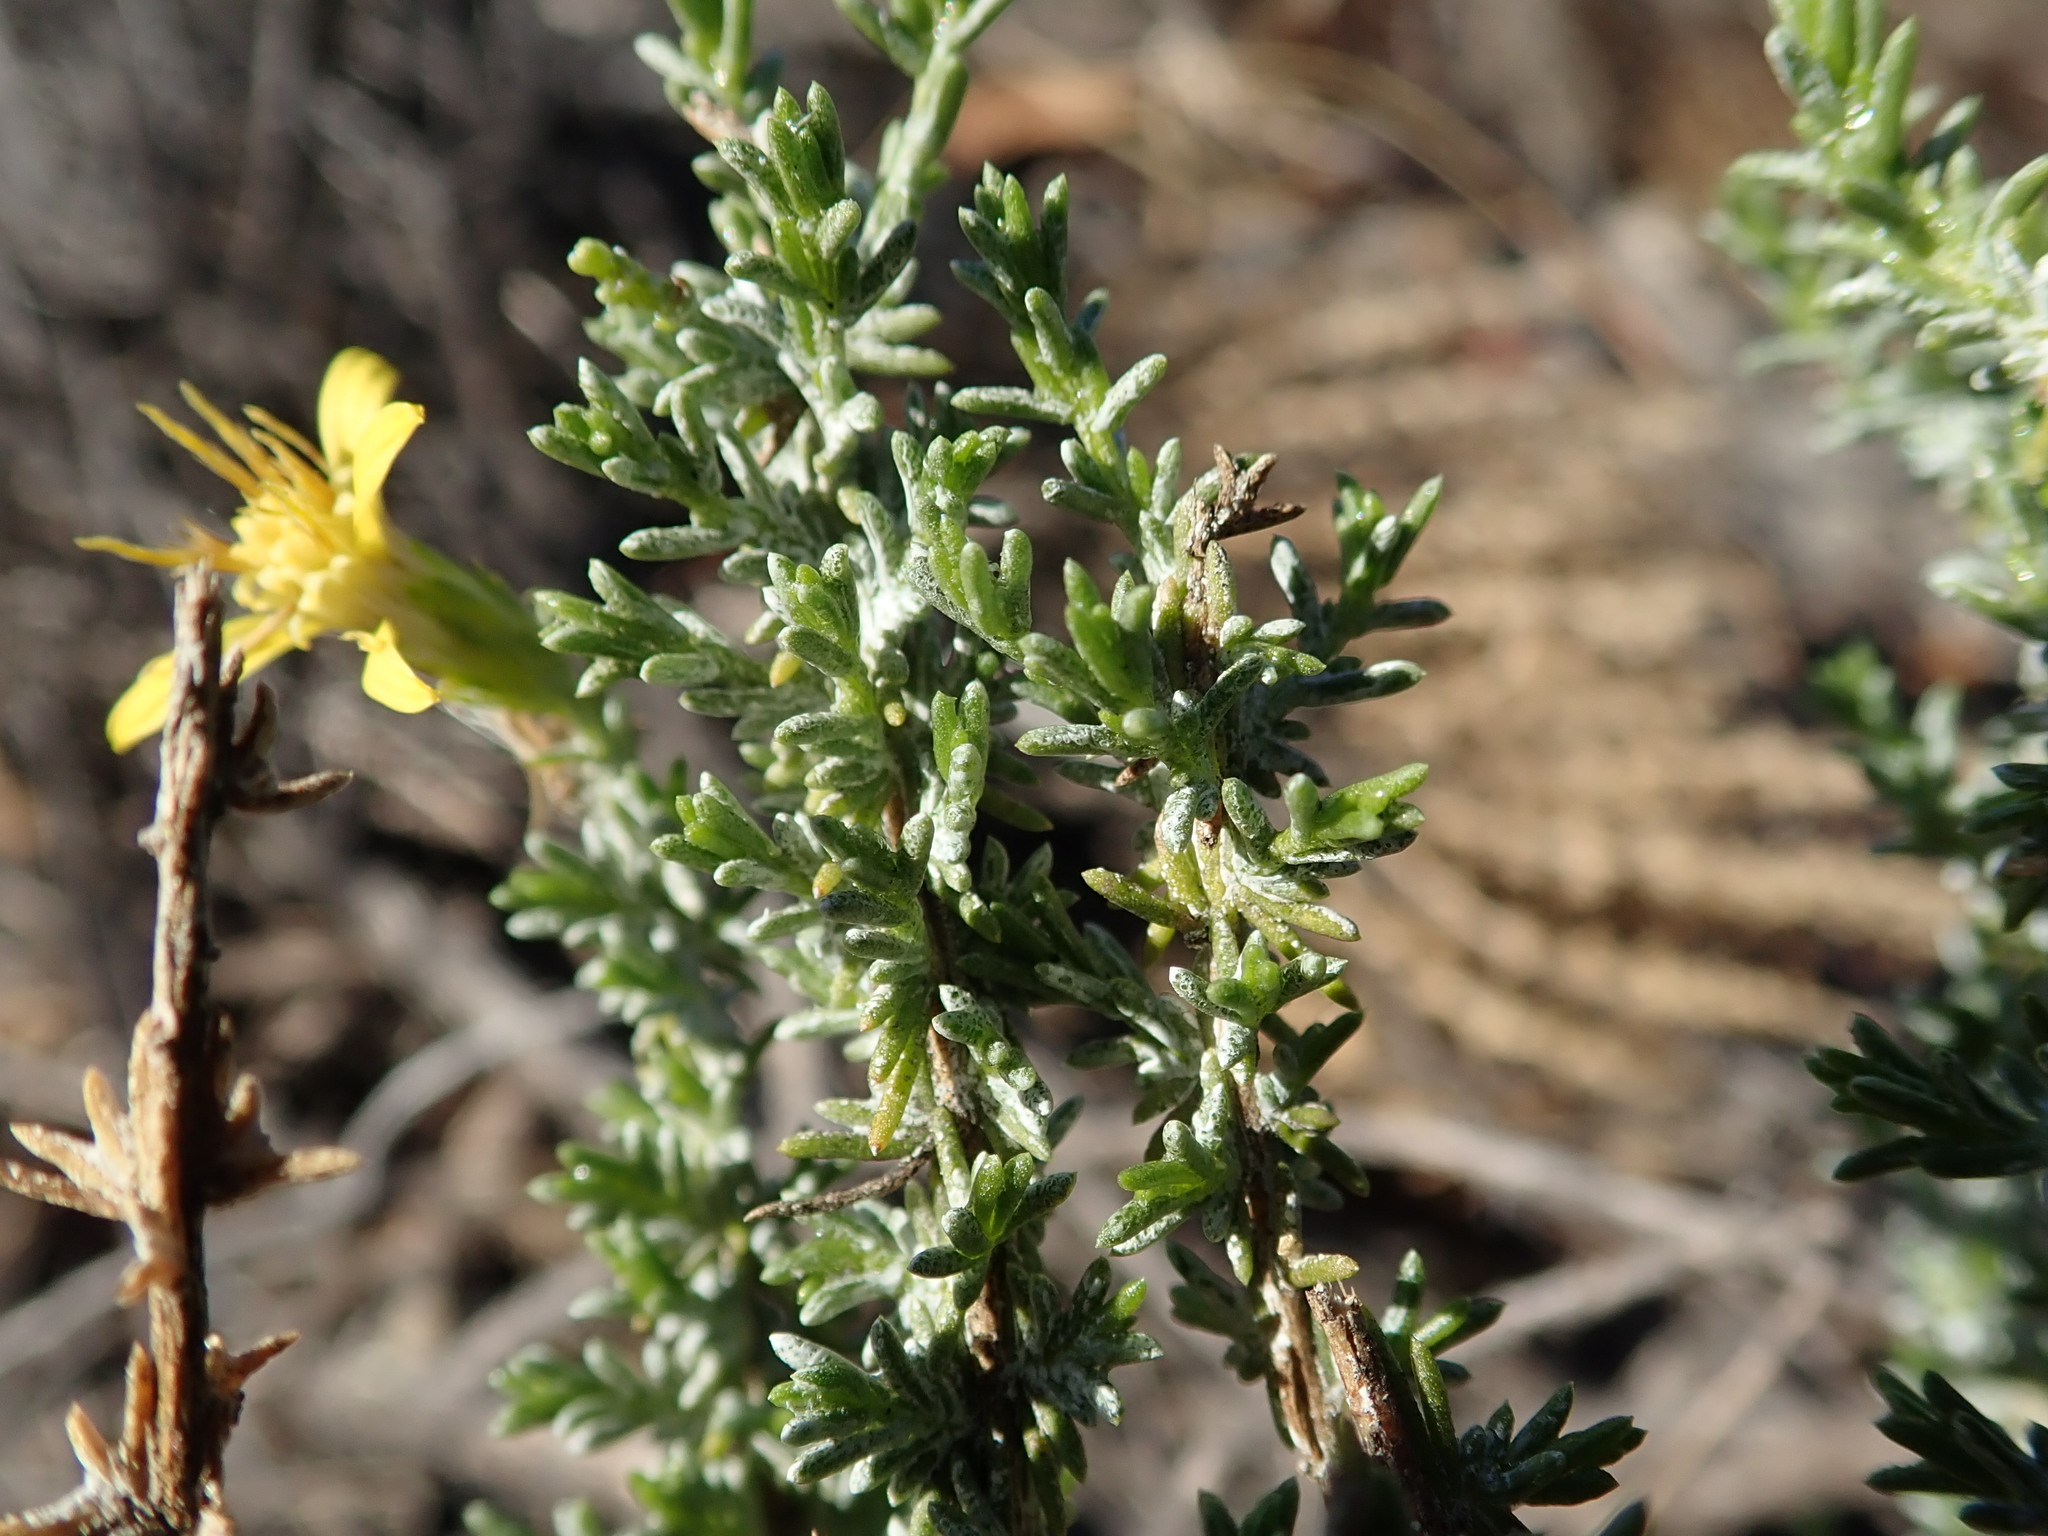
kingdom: Plantae
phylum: Tracheophyta
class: Magnoliopsida
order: Asterales
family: Asteraceae
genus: Ericameria
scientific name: Ericameria ericoides
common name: California goldenbush
